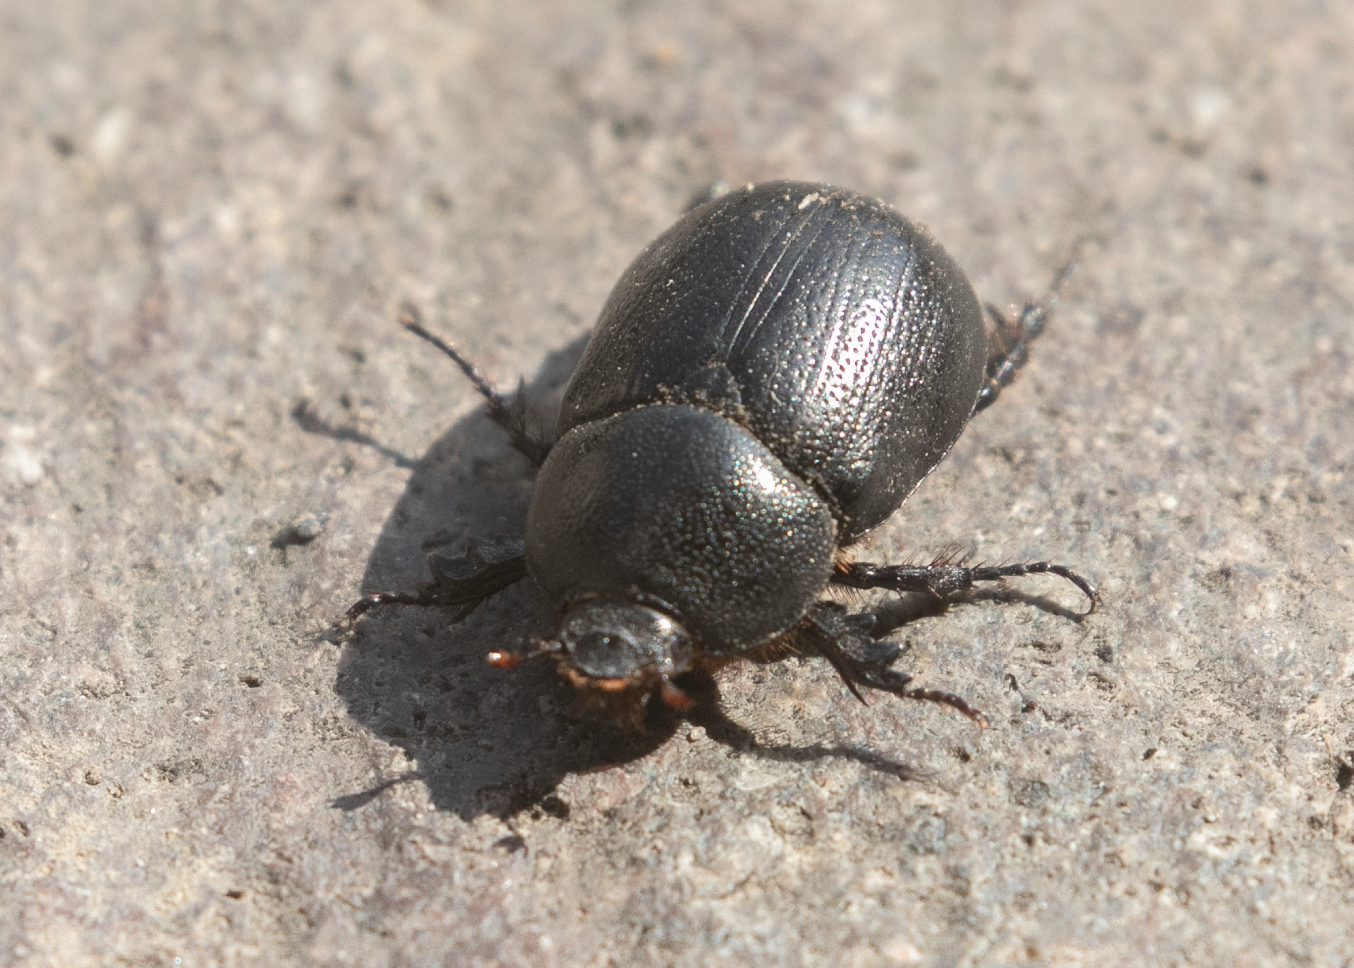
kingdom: Animalia
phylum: Arthropoda
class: Insecta
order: Coleoptera
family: Scarabaeidae
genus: Pentodon
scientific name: Pentodon bidens
